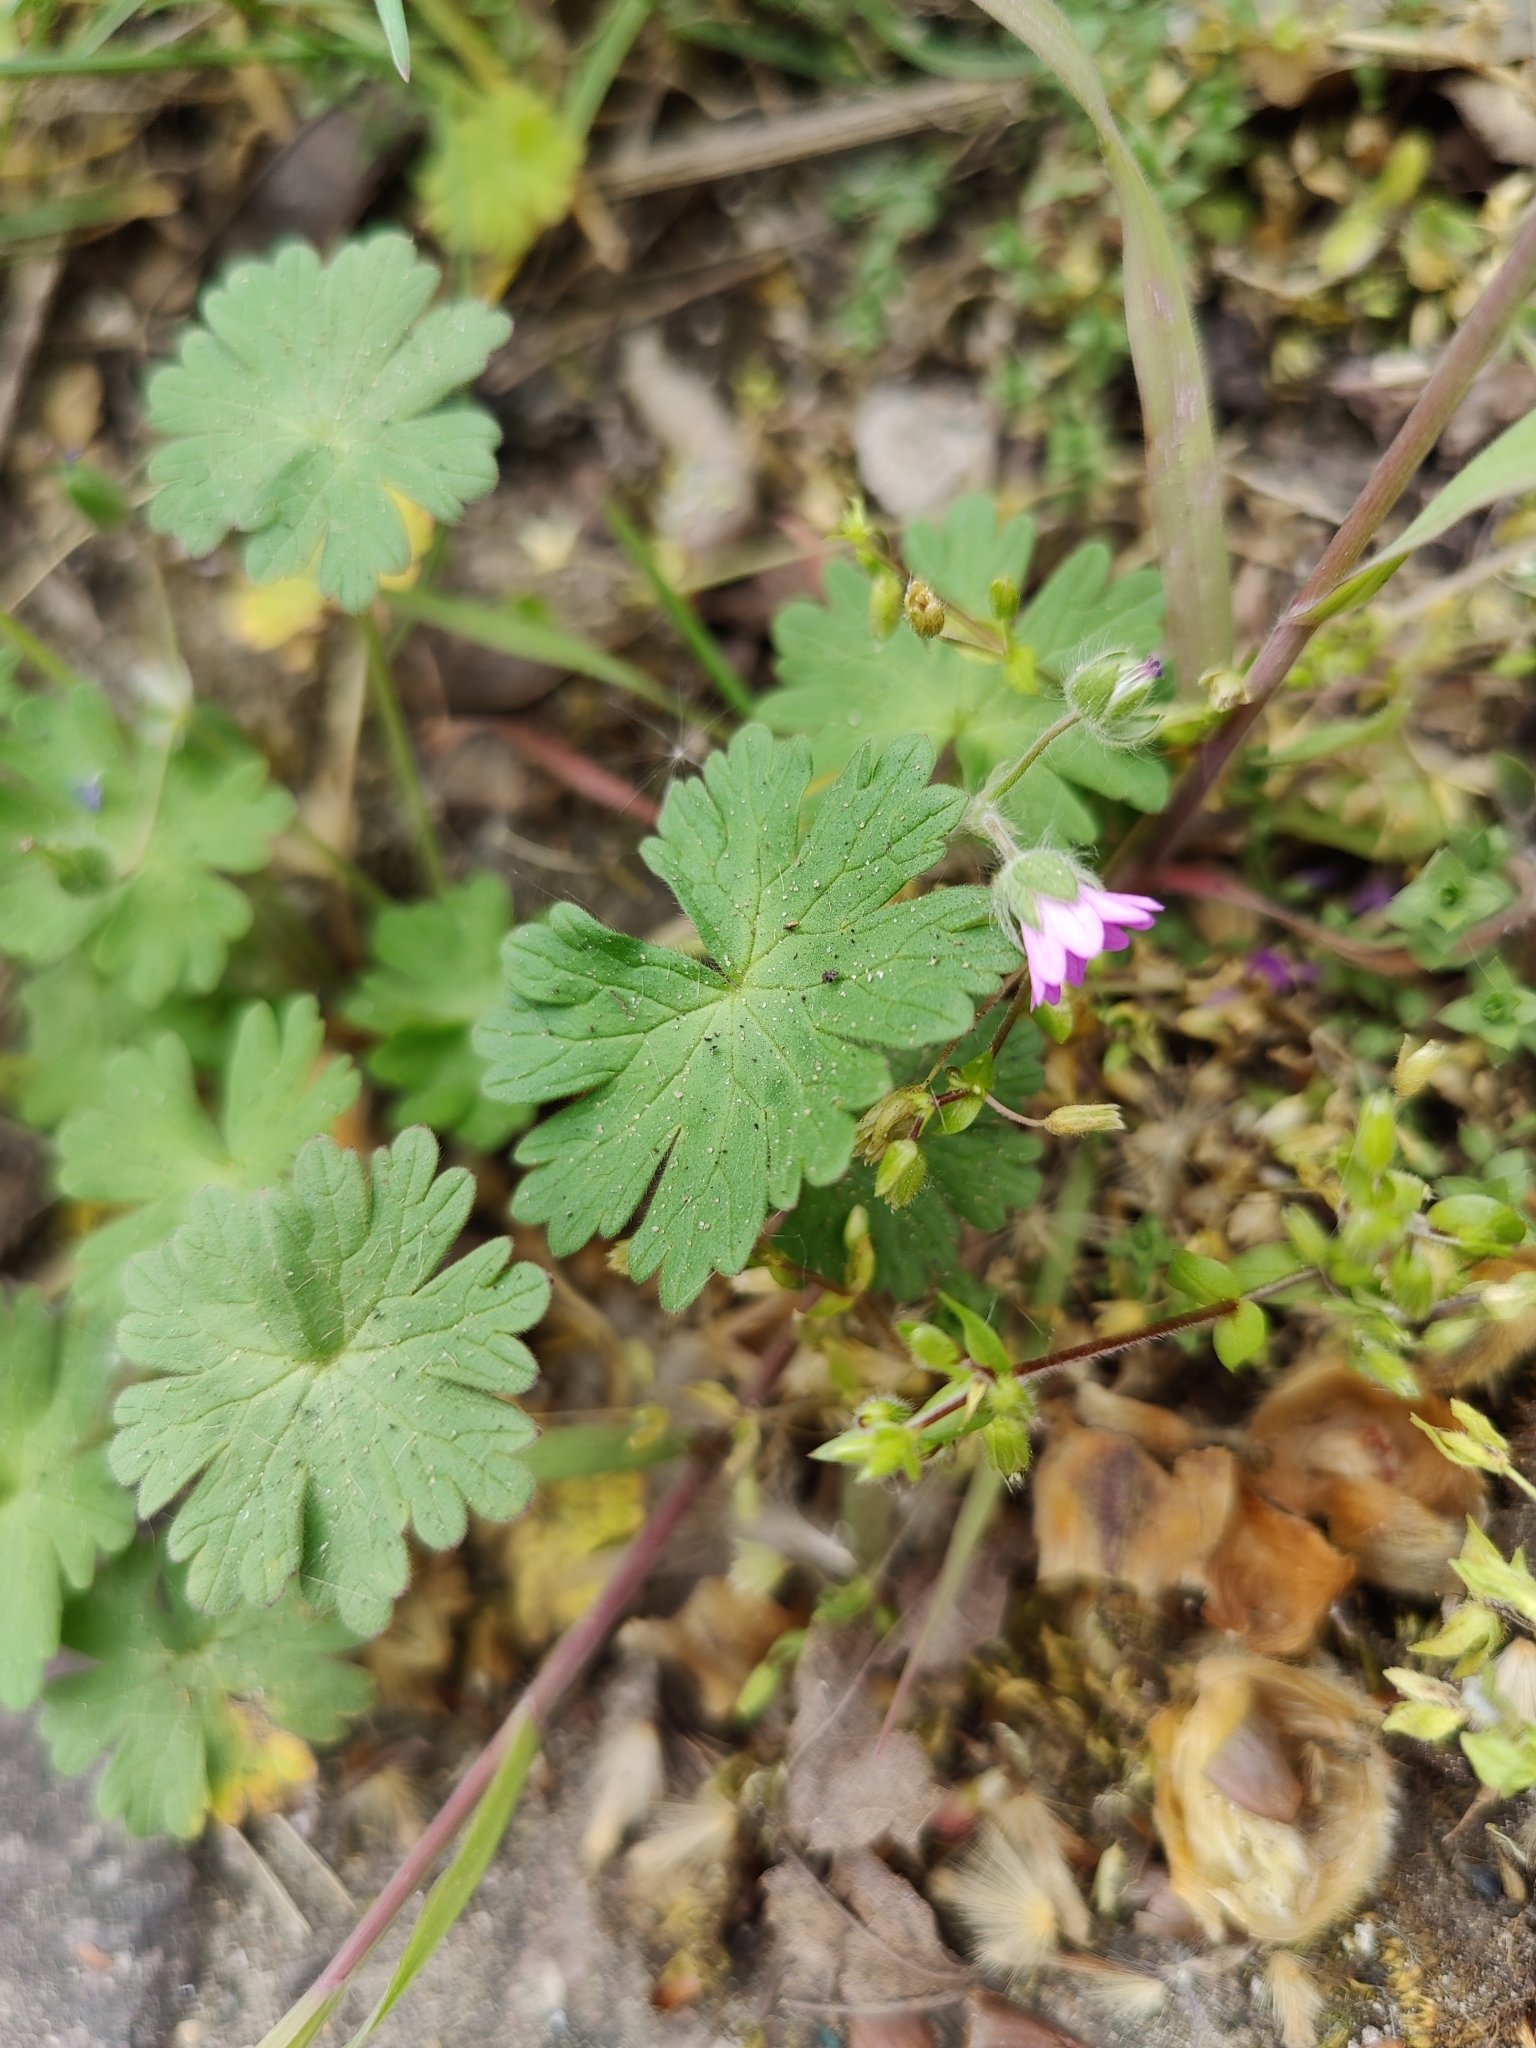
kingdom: Plantae
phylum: Tracheophyta
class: Magnoliopsida
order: Geraniales
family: Geraniaceae
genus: Geranium
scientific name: Geranium molle
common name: Dove's-foot crane's-bill
